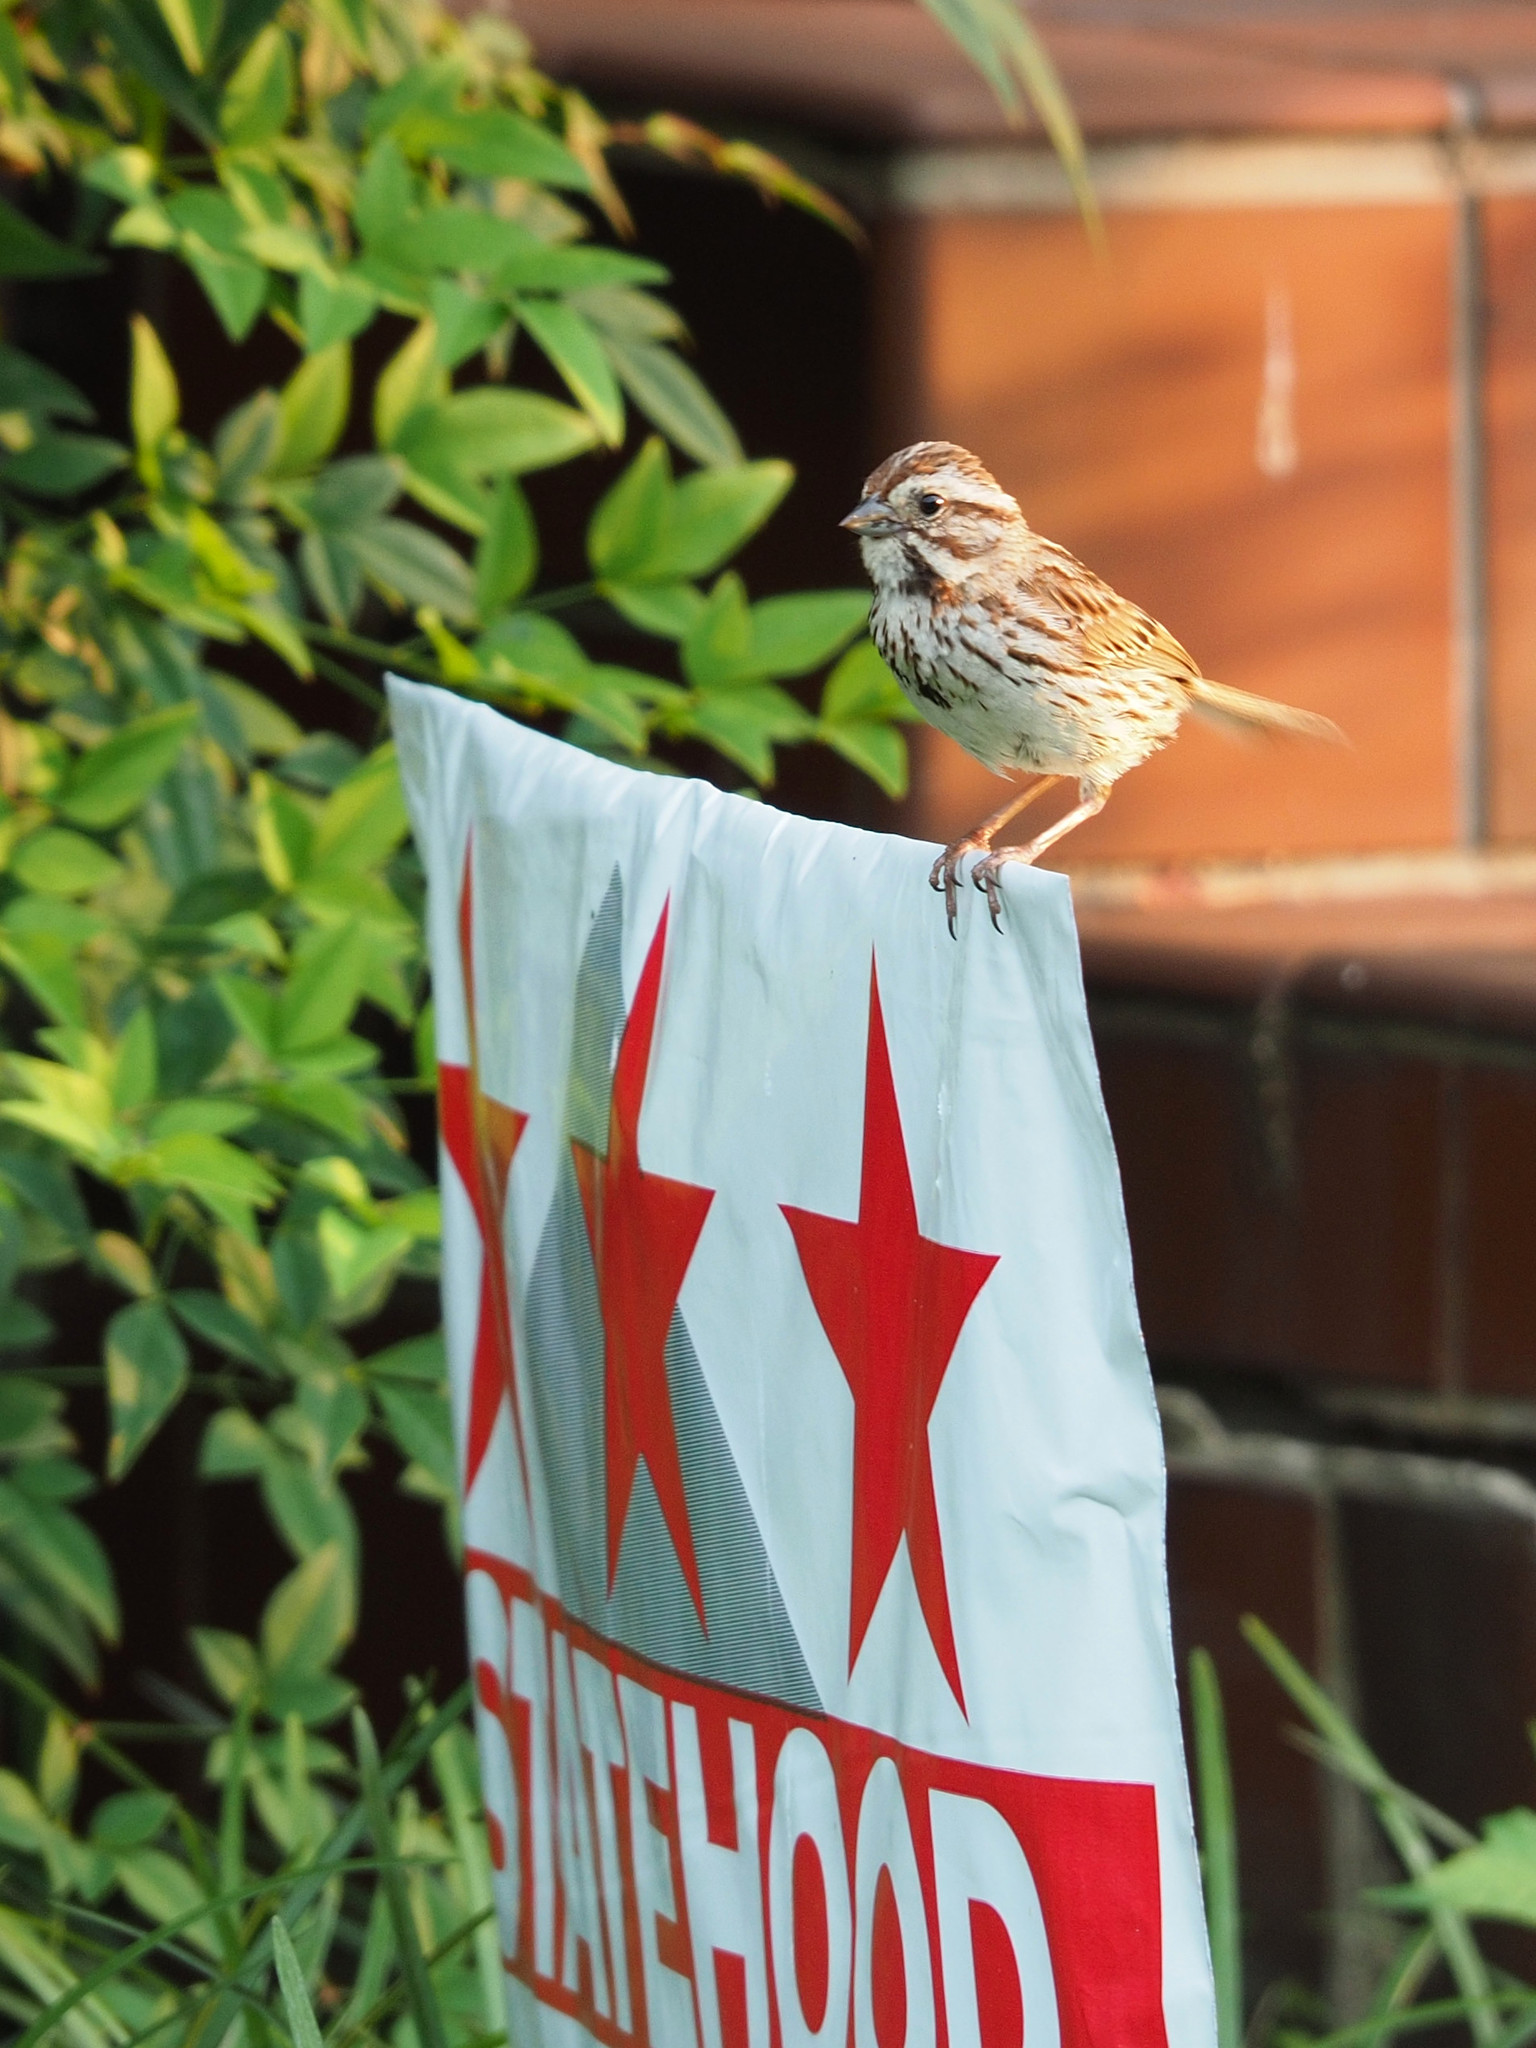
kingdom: Animalia
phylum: Chordata
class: Aves
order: Passeriformes
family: Passerellidae
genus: Melospiza
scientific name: Melospiza melodia
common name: Song sparrow
